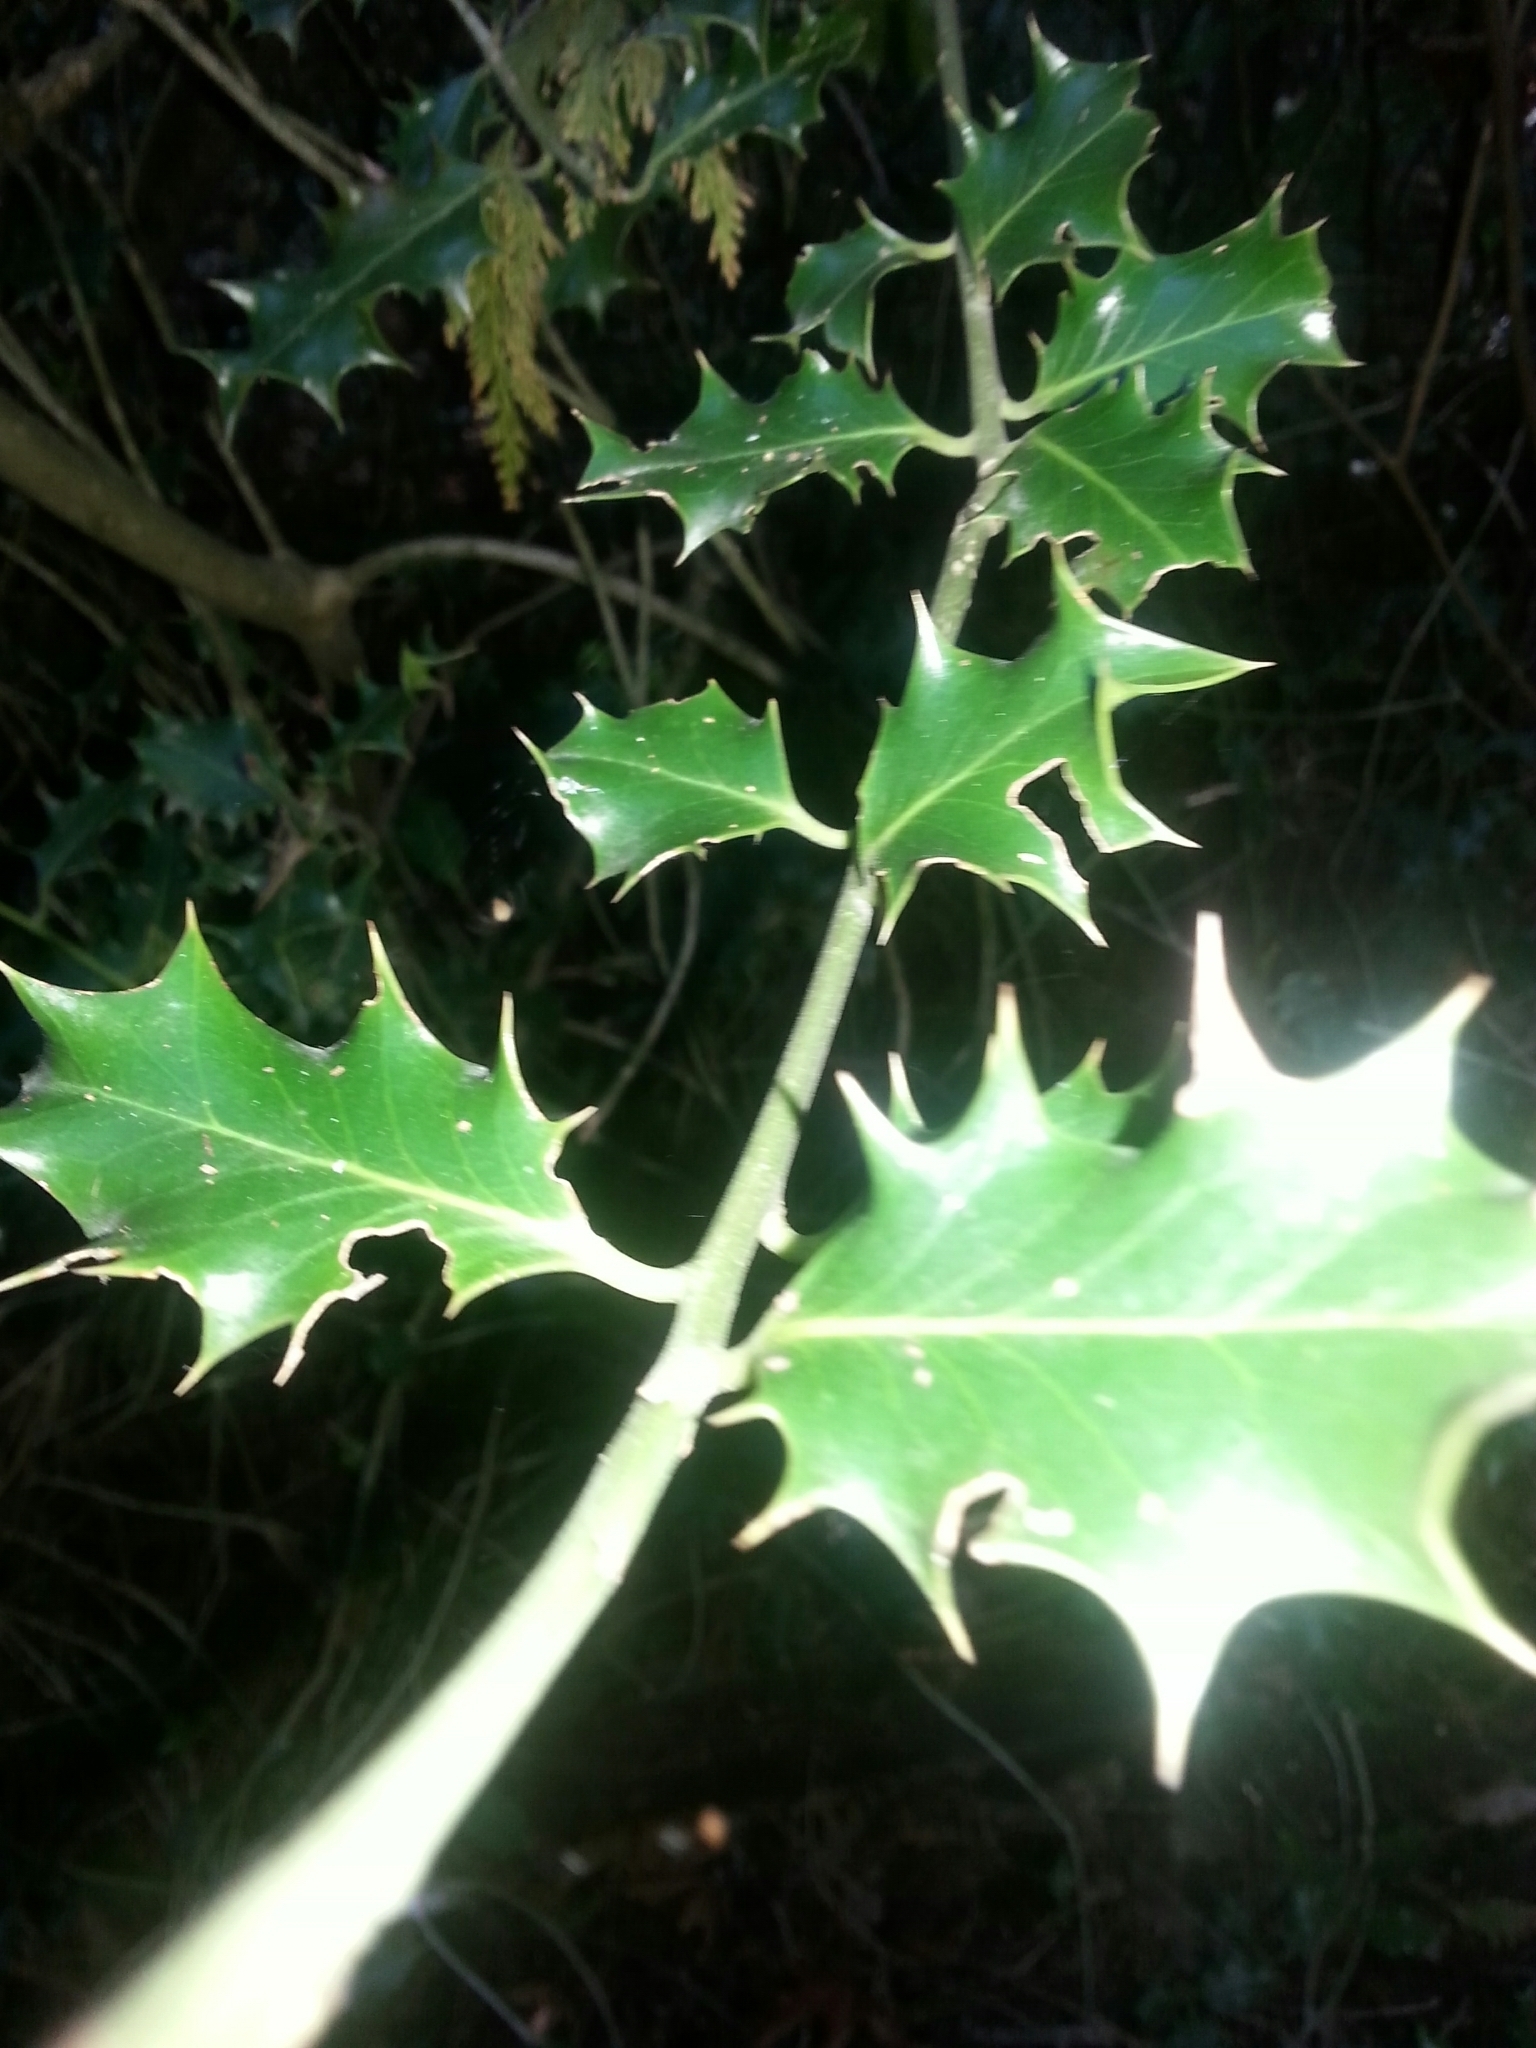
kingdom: Plantae
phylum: Tracheophyta
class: Magnoliopsida
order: Aquifoliales
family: Aquifoliaceae
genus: Ilex
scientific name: Ilex aquifolium
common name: English holly
